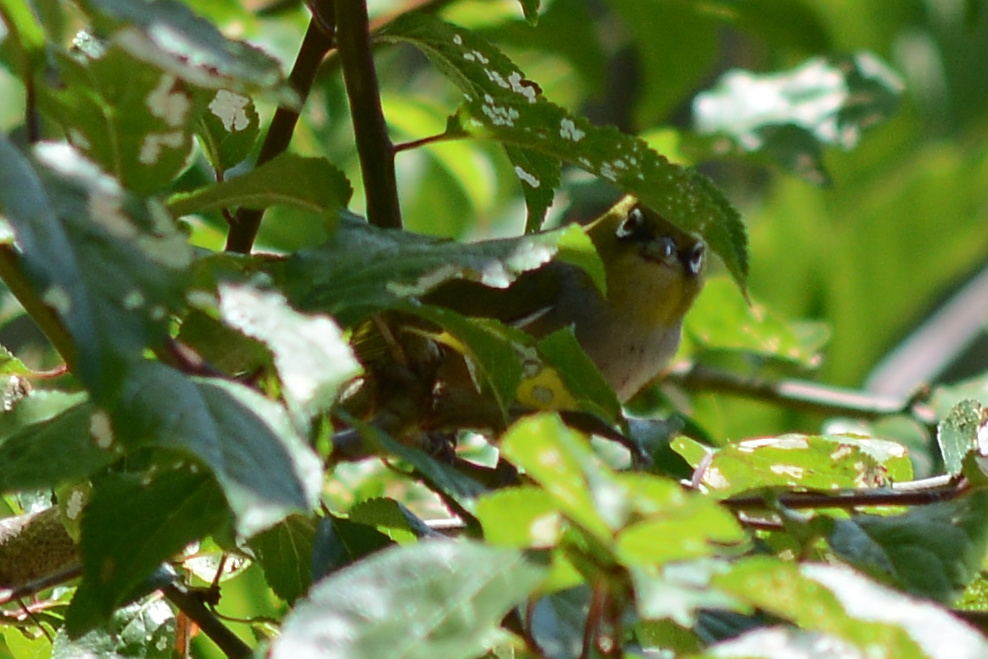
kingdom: Animalia
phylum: Chordata
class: Aves
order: Passeriformes
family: Zosteropidae
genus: Zosterops
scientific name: Zosterops lateralis
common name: Silvereye
